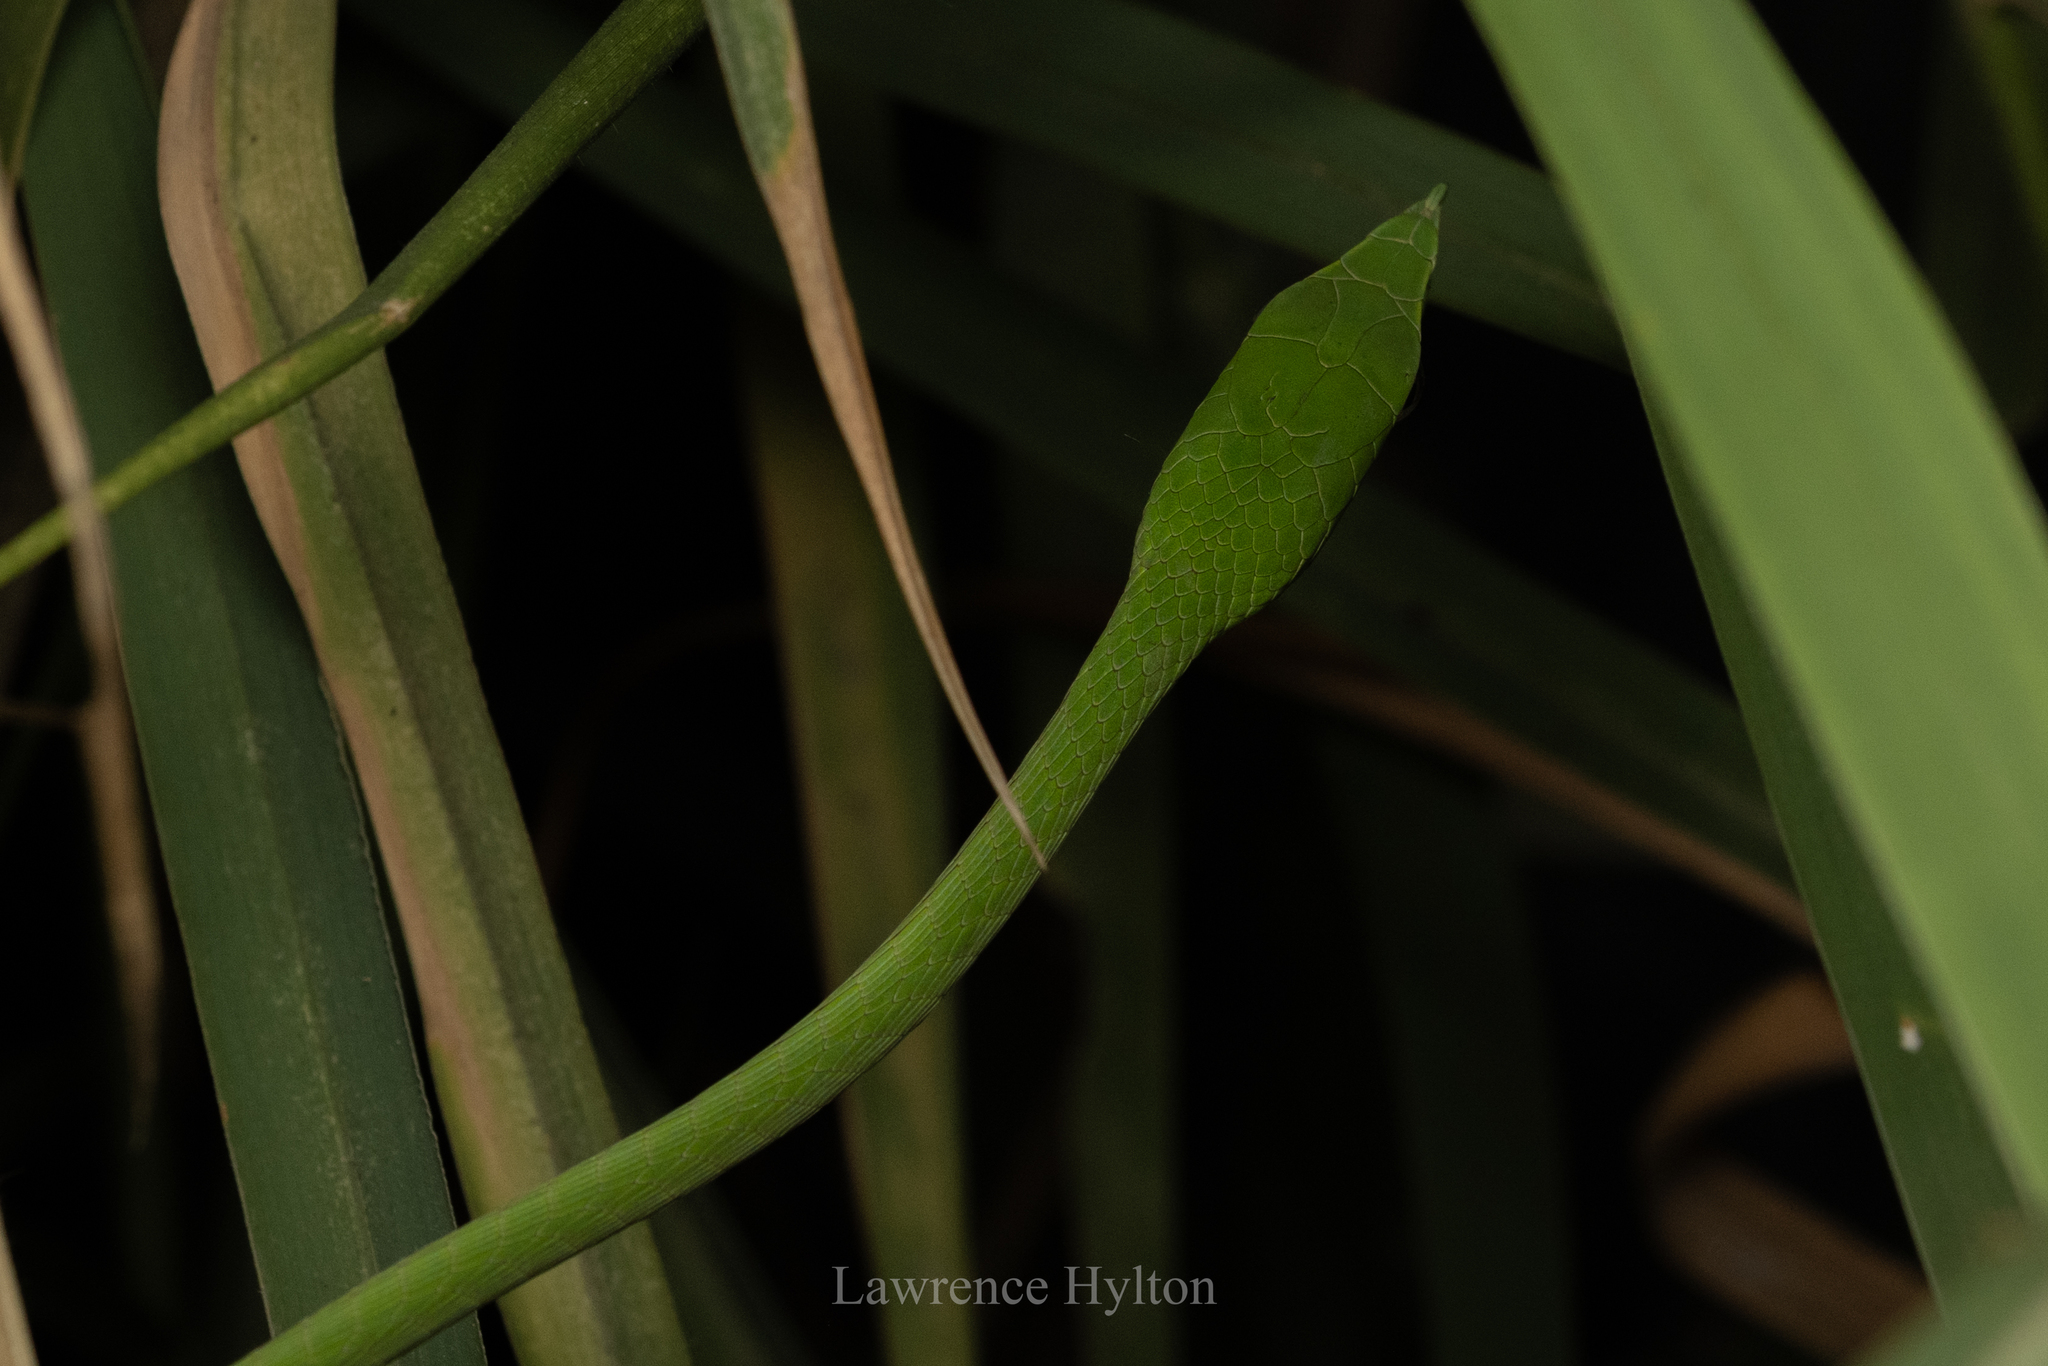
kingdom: Animalia
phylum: Chordata
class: Squamata
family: Colubridae
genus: Ahaetulla
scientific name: Ahaetulla
